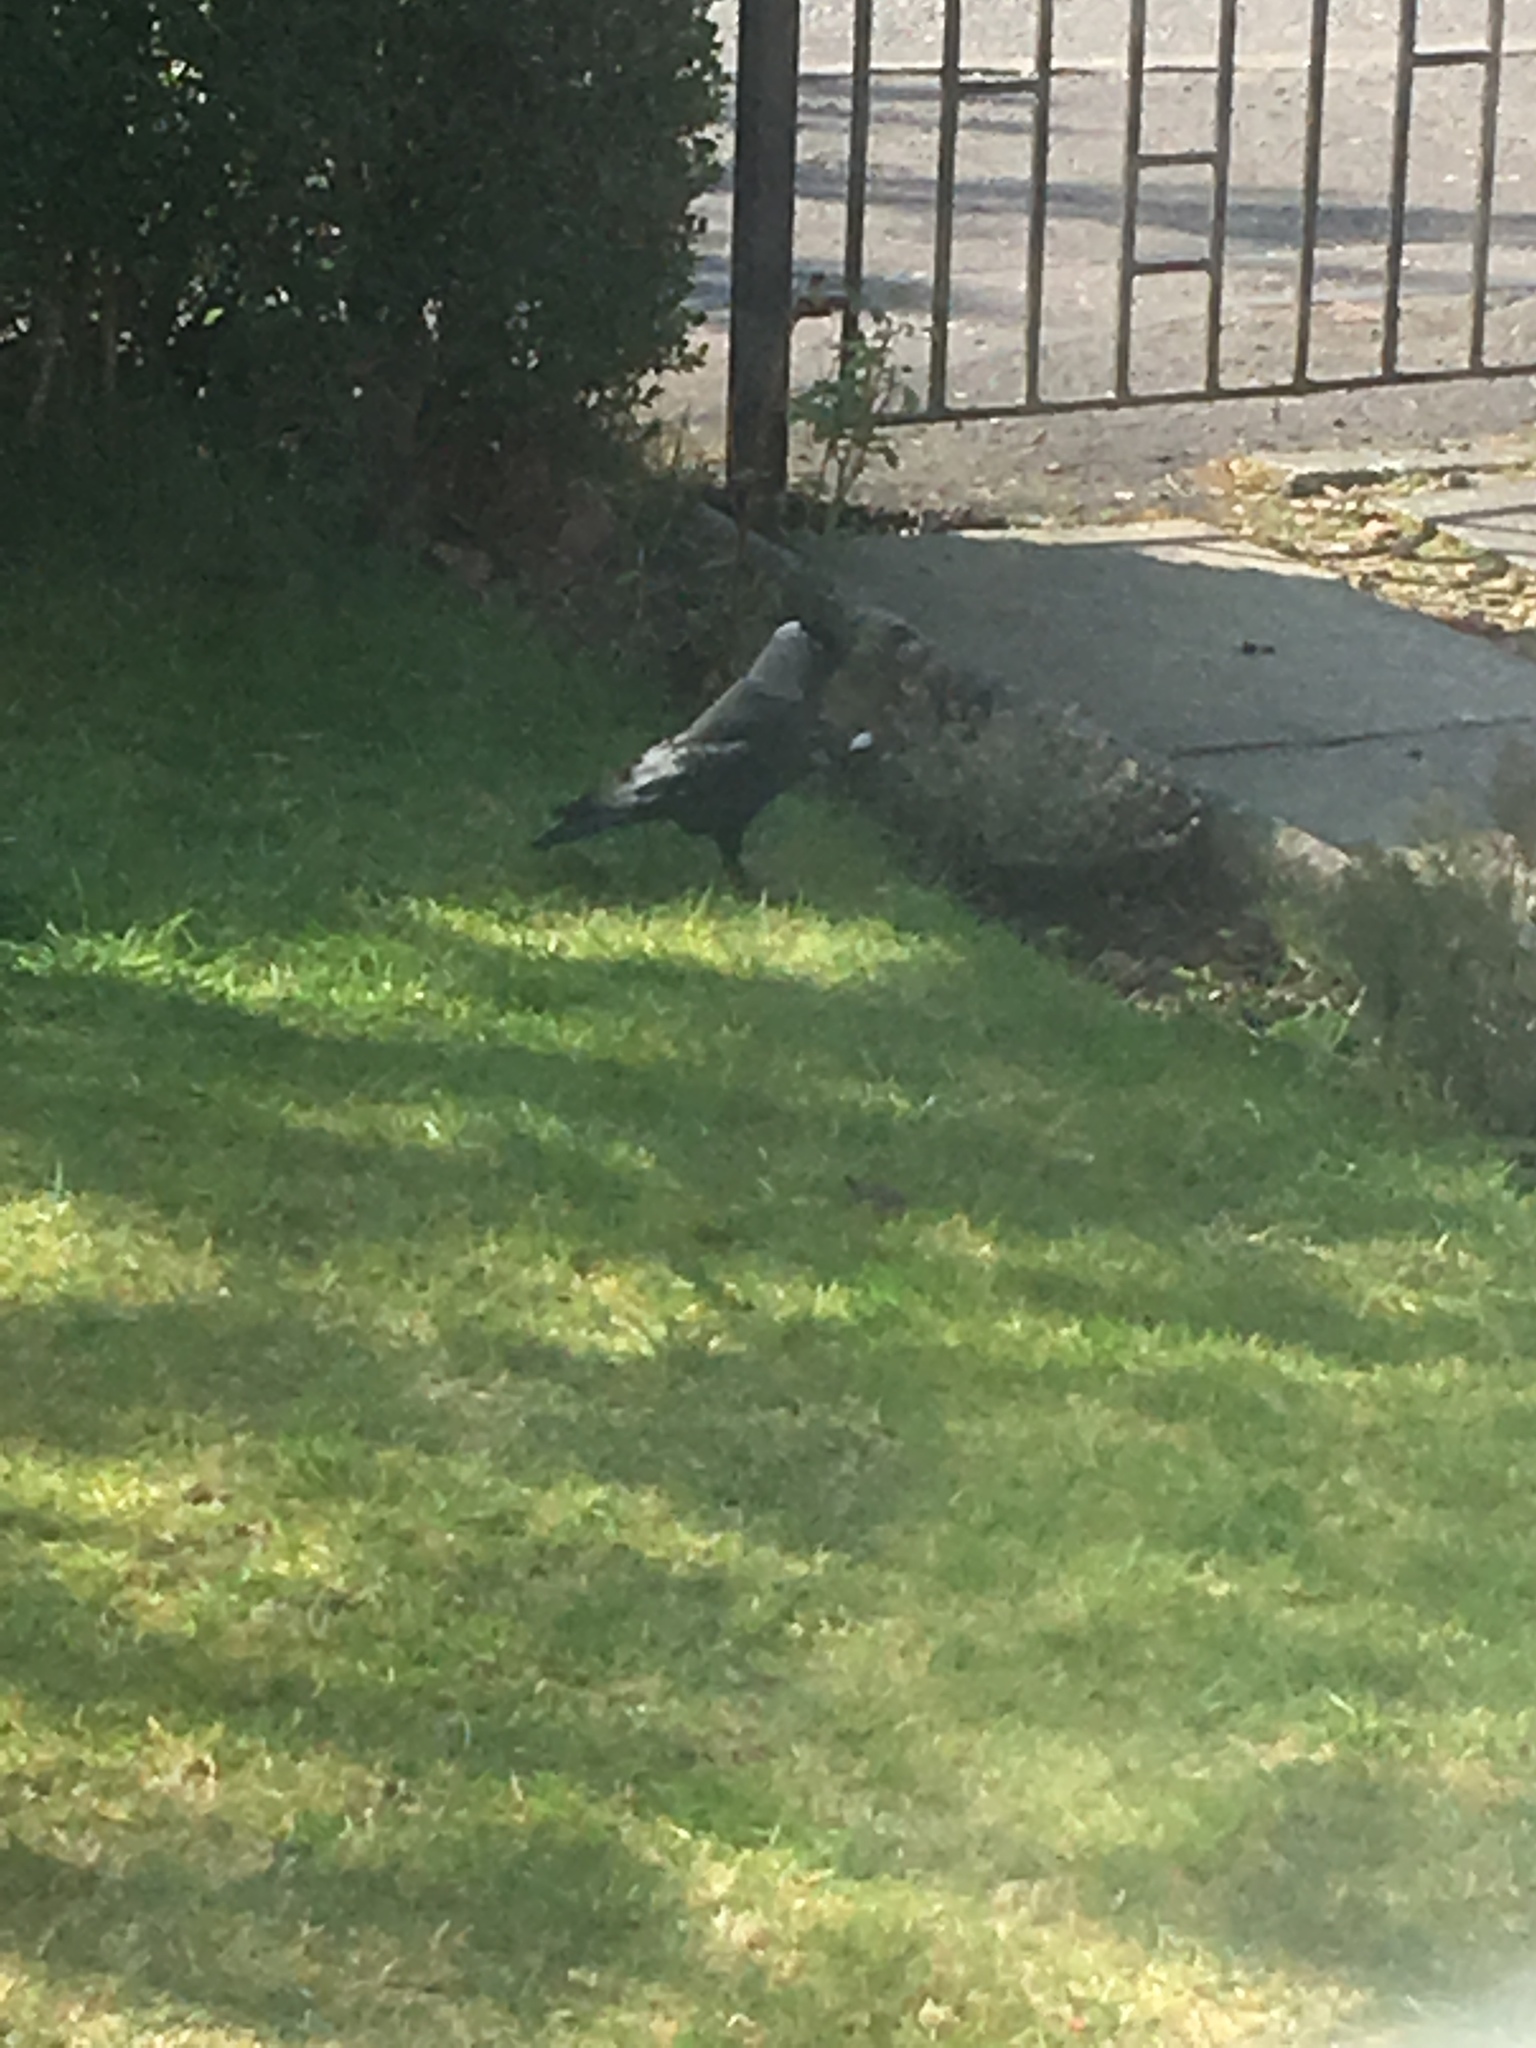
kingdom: Animalia
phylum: Chordata
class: Aves
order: Passeriformes
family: Corvidae
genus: Coloeus
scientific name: Coloeus monedula
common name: Western jackdaw
